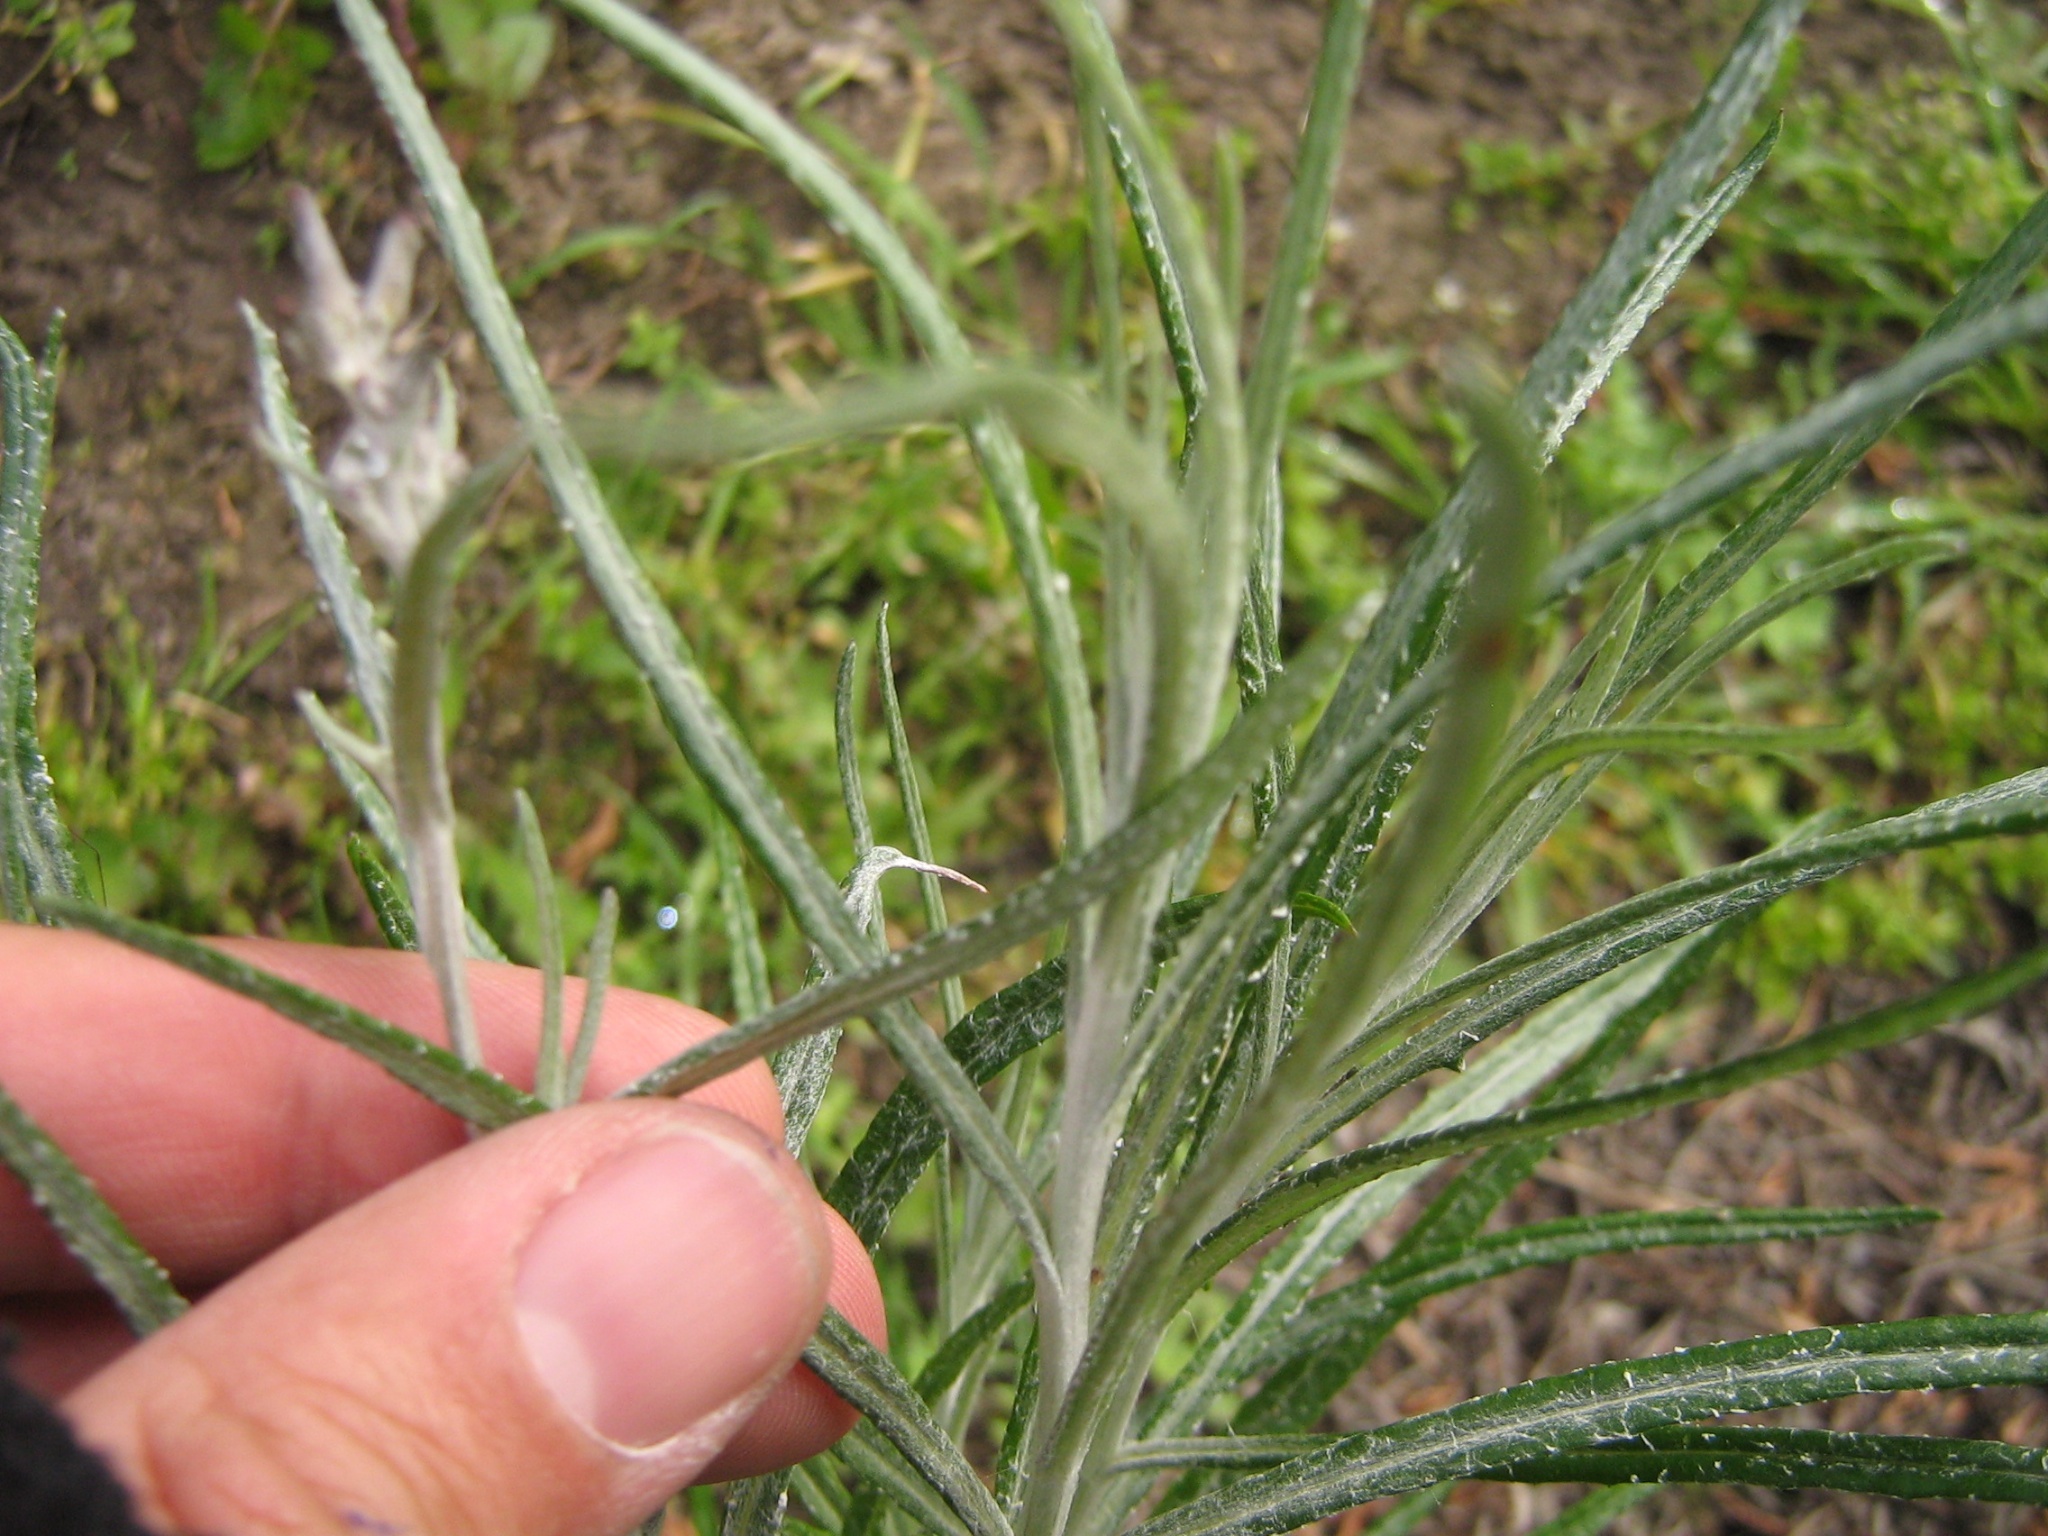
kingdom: Plantae
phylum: Tracheophyta
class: Magnoliopsida
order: Asterales
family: Asteraceae
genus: Senecio
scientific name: Senecio quadridentatus
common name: Cotton fireweed
